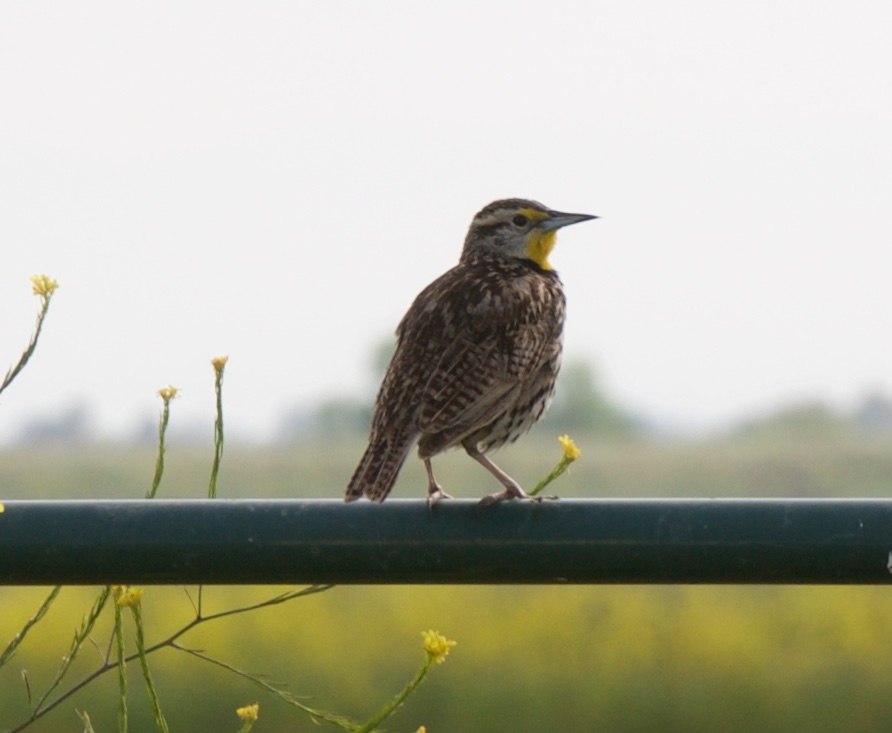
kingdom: Animalia
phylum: Chordata
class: Aves
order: Passeriformes
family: Icteridae
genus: Sturnella
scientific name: Sturnella neglecta
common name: Western meadowlark
